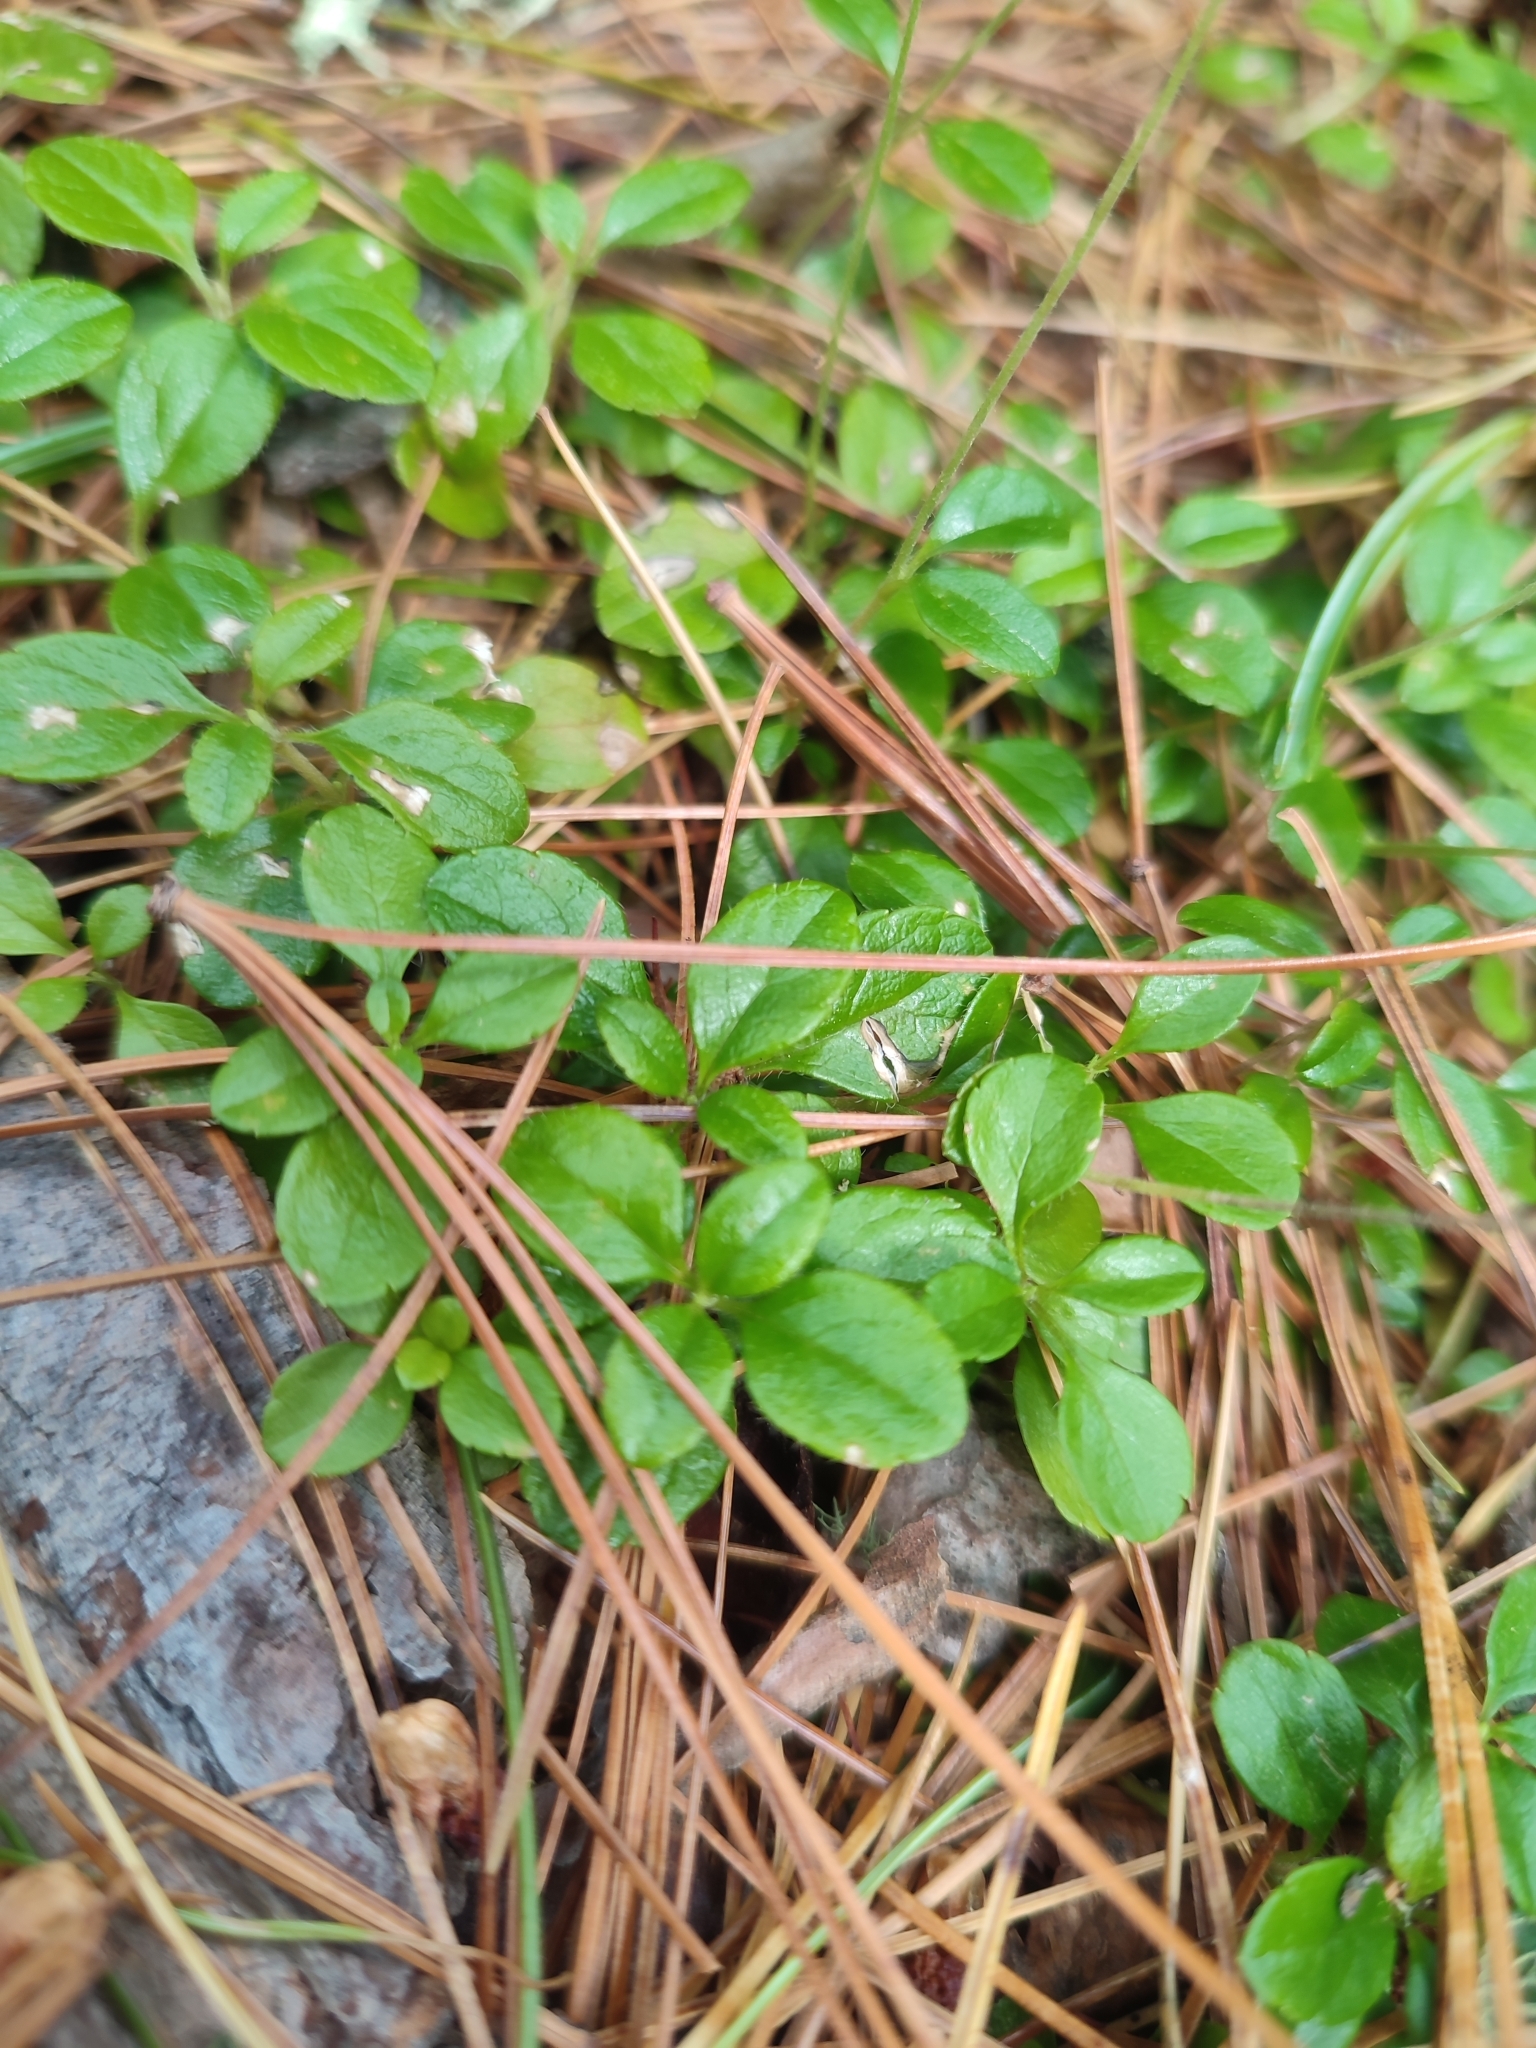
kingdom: Plantae
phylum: Tracheophyta
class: Magnoliopsida
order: Dipsacales
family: Caprifoliaceae
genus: Linnaea
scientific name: Linnaea borealis
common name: Twinflower
